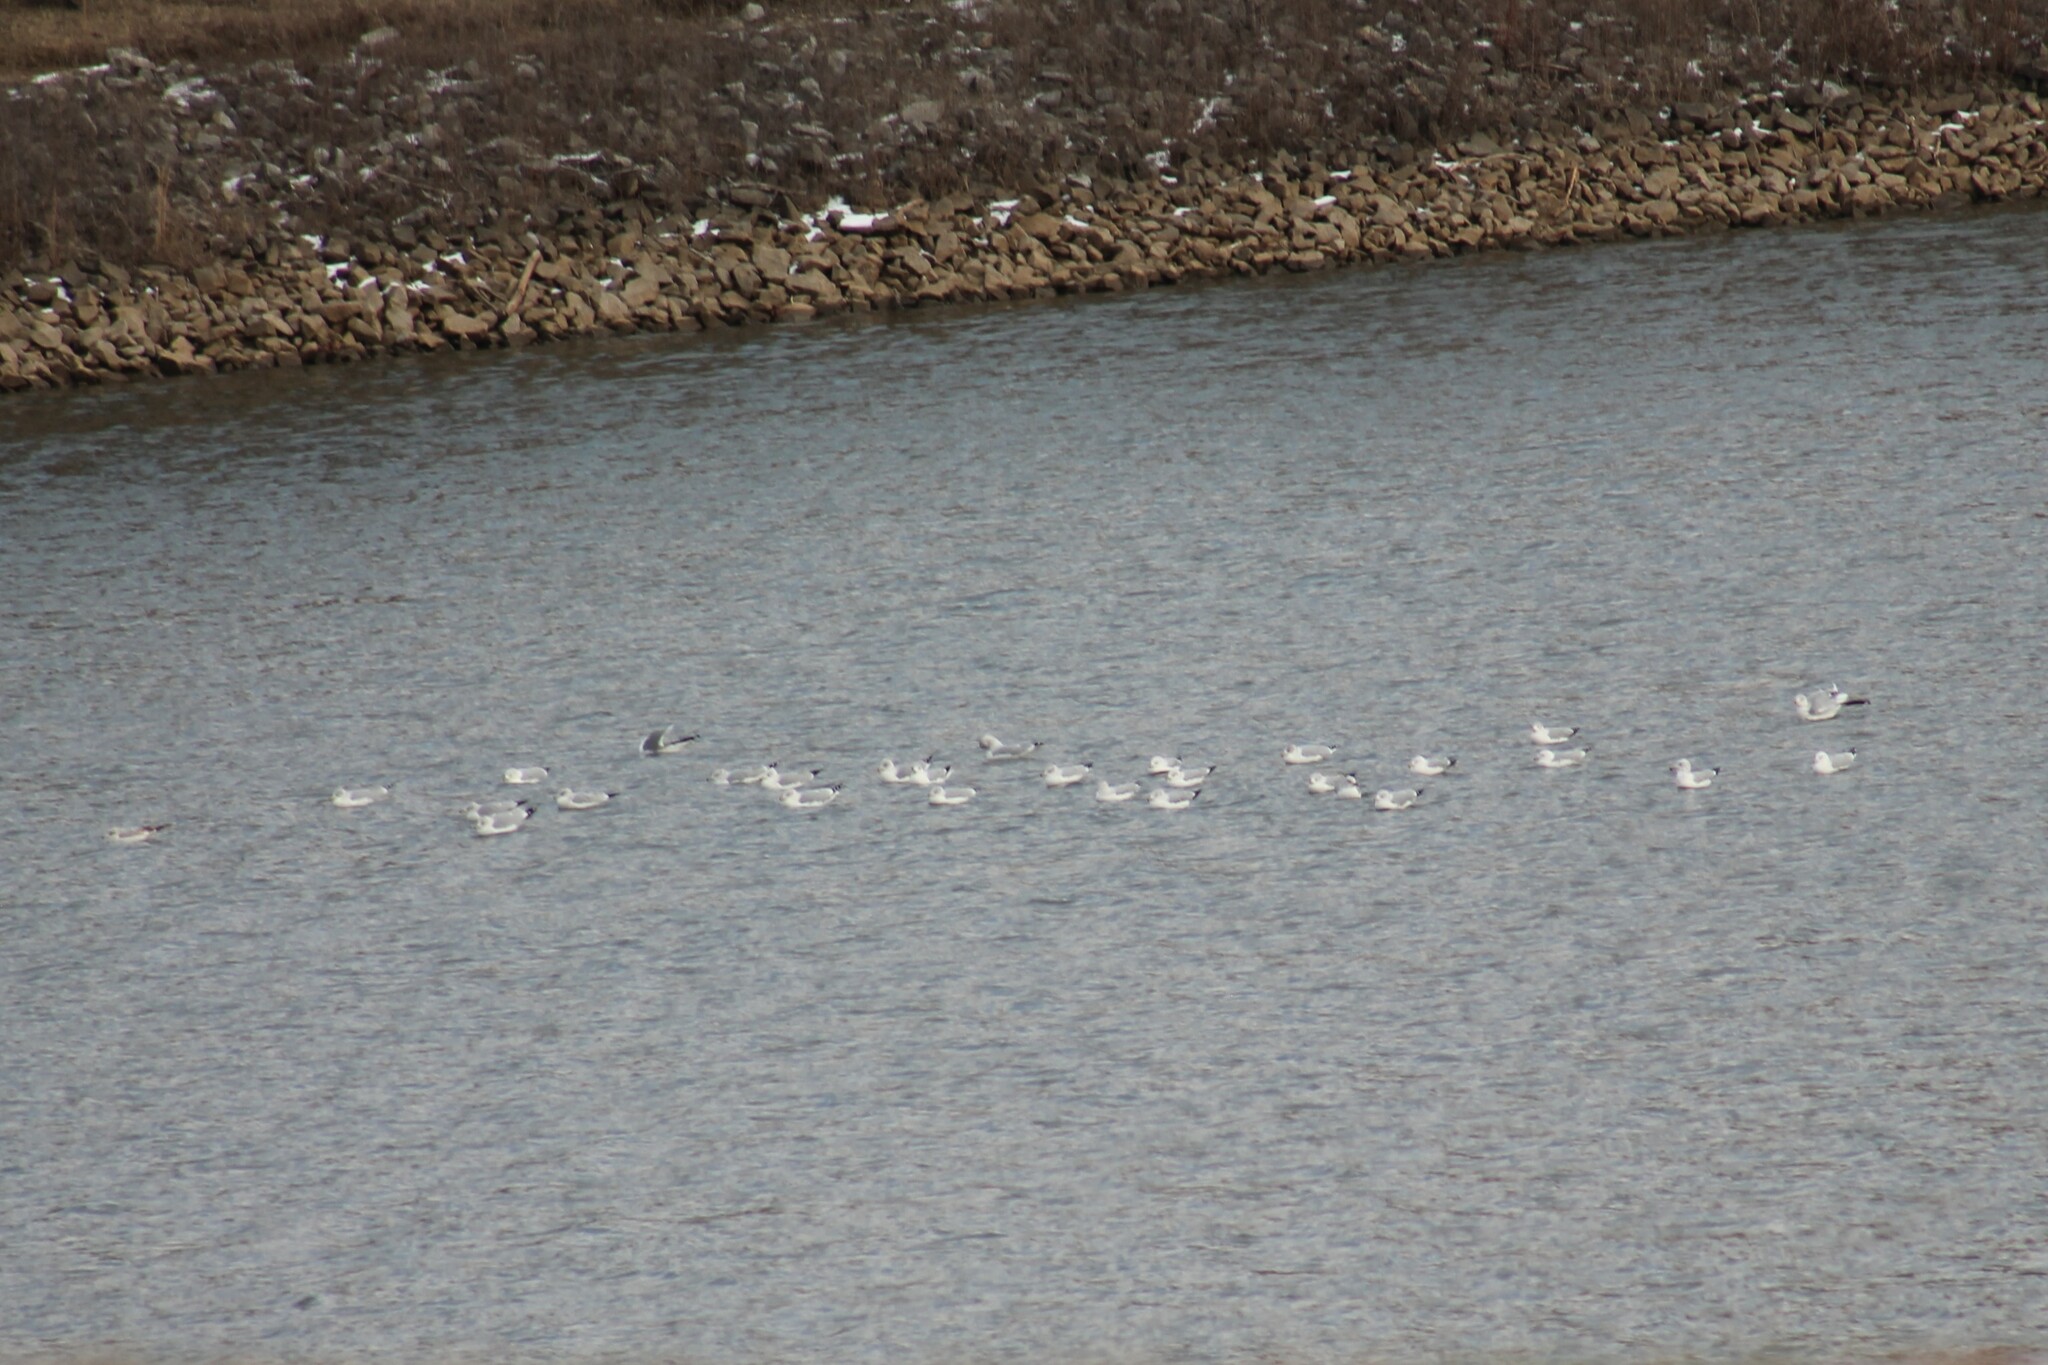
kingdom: Animalia
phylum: Chordata
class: Aves
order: Charadriiformes
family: Laridae
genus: Larus
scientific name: Larus delawarensis
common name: Ring-billed gull
